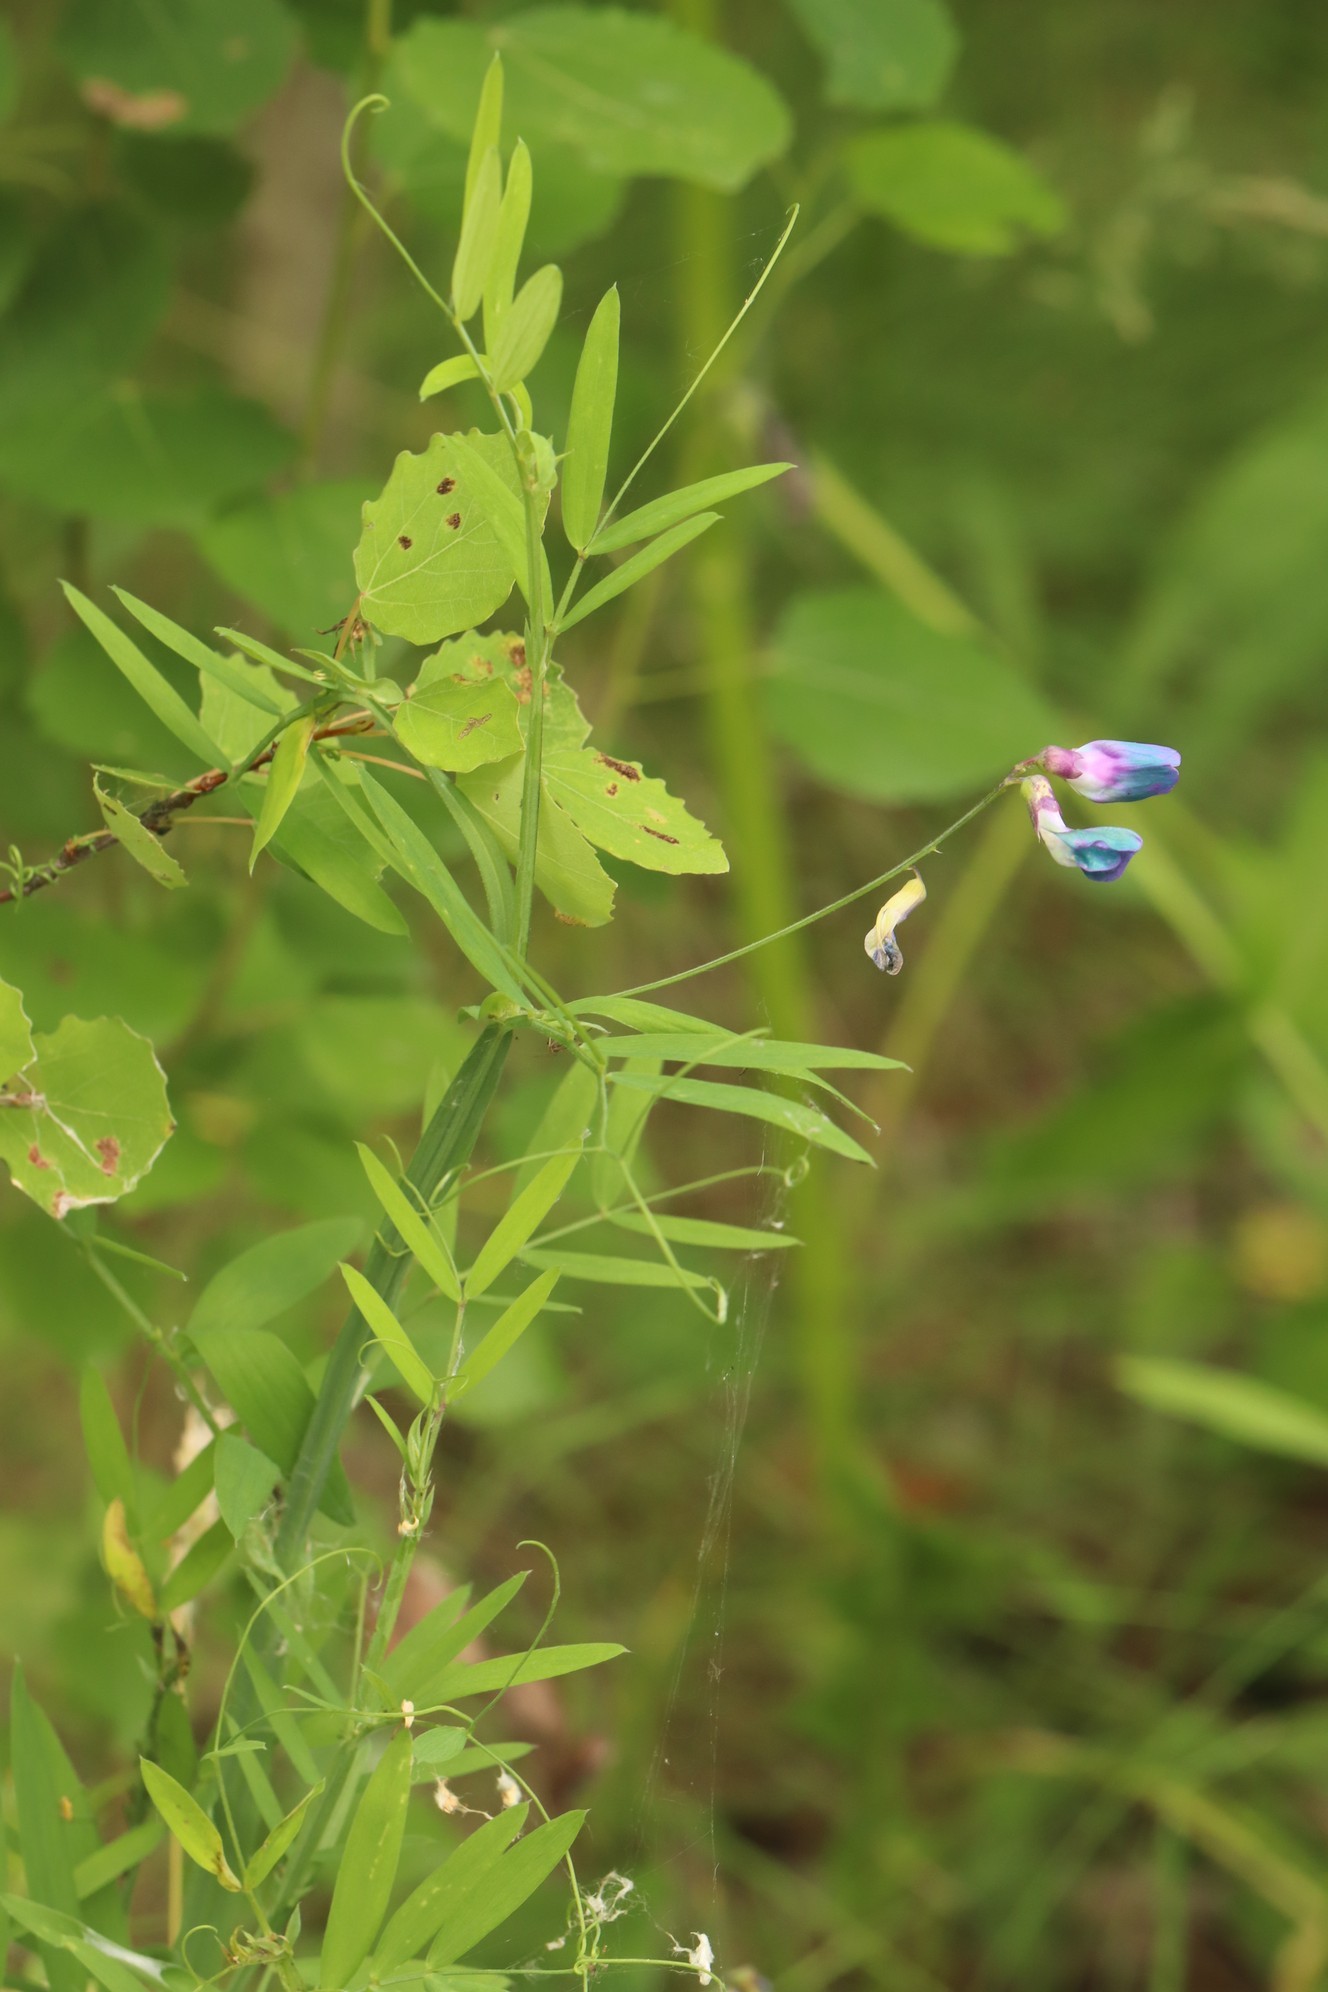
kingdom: Plantae
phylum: Tracheophyta
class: Magnoliopsida
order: Fabales
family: Fabaceae
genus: Lathyrus
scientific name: Lathyrus palustris
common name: Marsh pea
